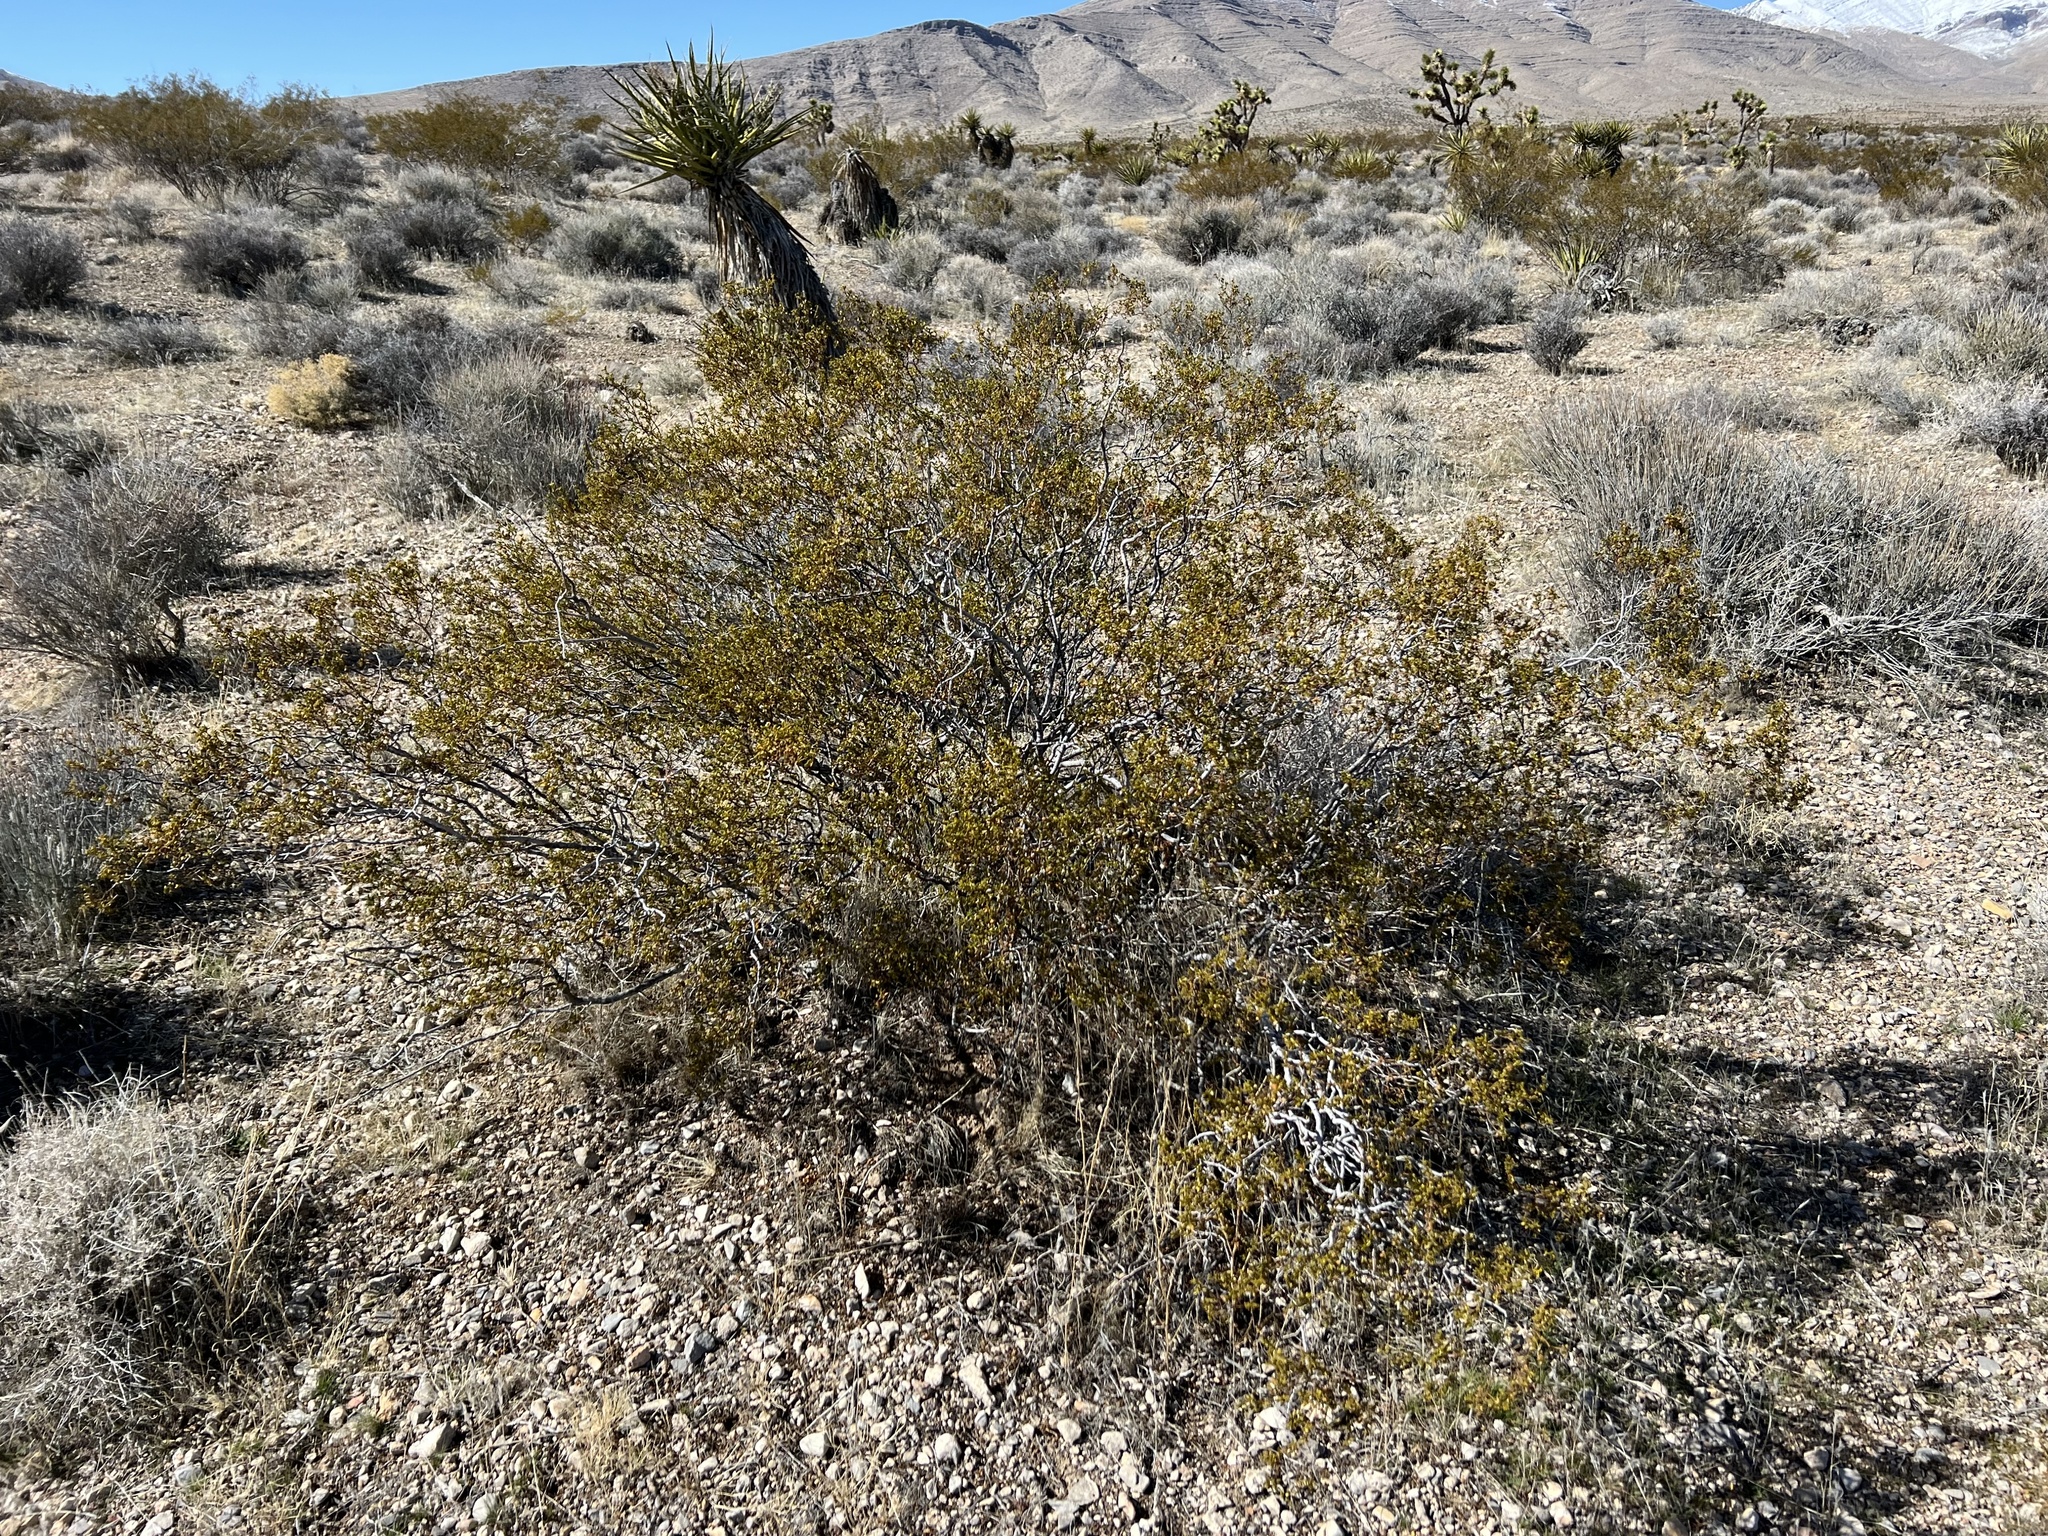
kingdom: Plantae
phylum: Tracheophyta
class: Magnoliopsida
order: Zygophyllales
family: Zygophyllaceae
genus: Larrea
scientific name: Larrea tridentata
